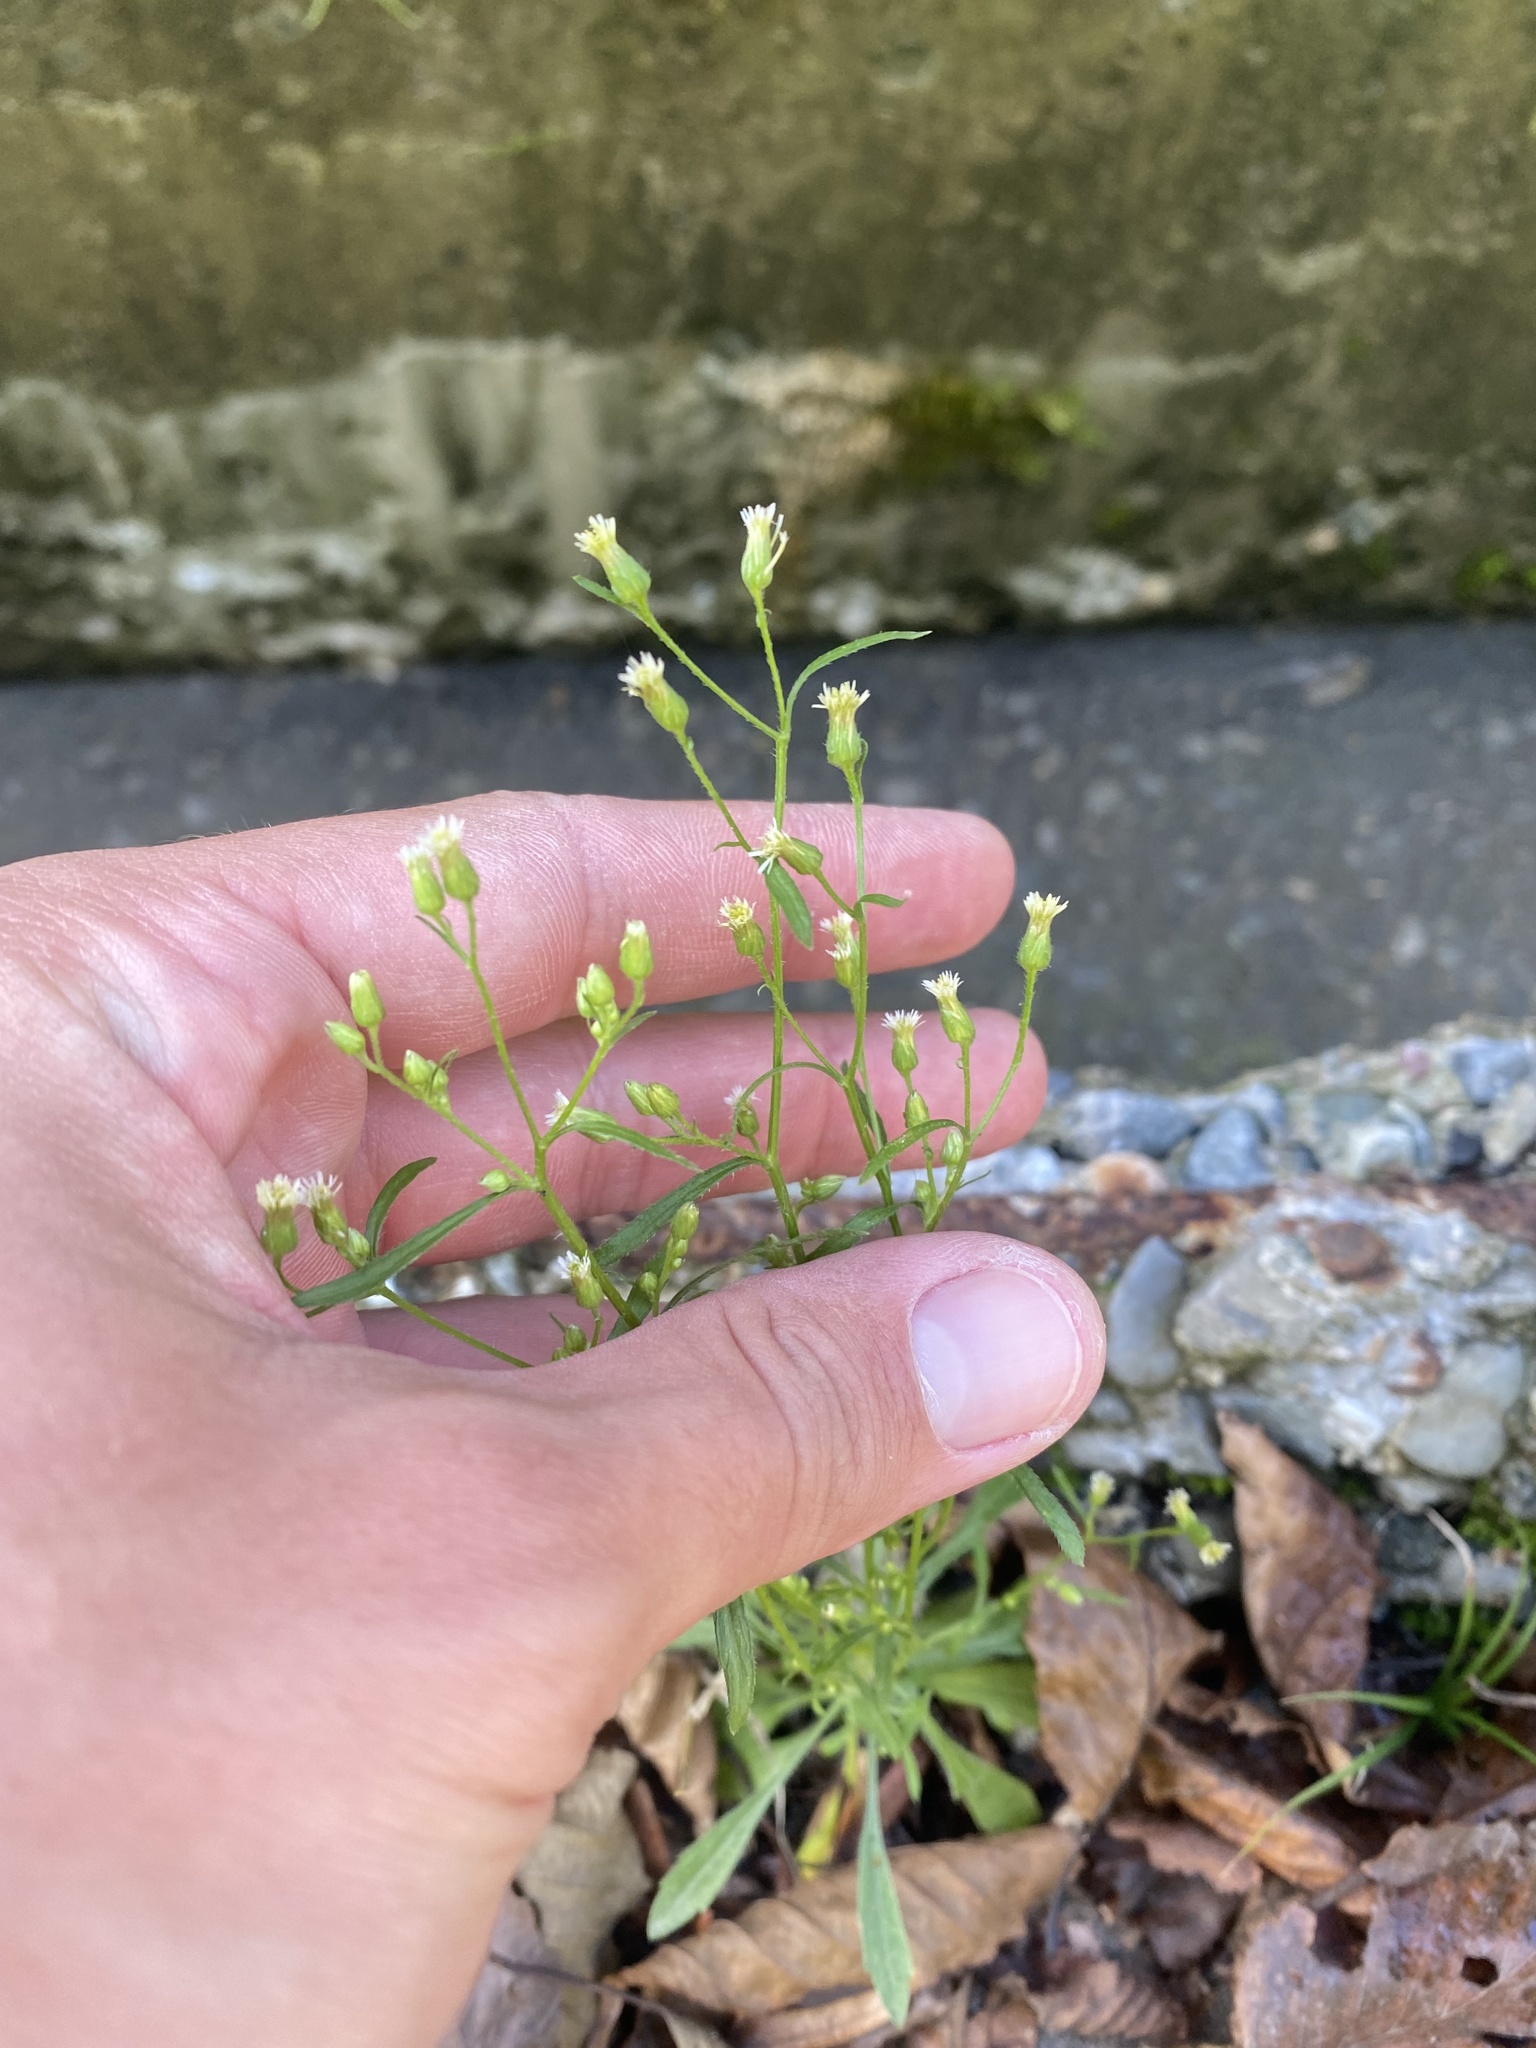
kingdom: Plantae
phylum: Tracheophyta
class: Magnoliopsida
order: Asterales
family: Asteraceae
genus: Erigeron
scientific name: Erigeron canadensis
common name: Canadian fleabane
